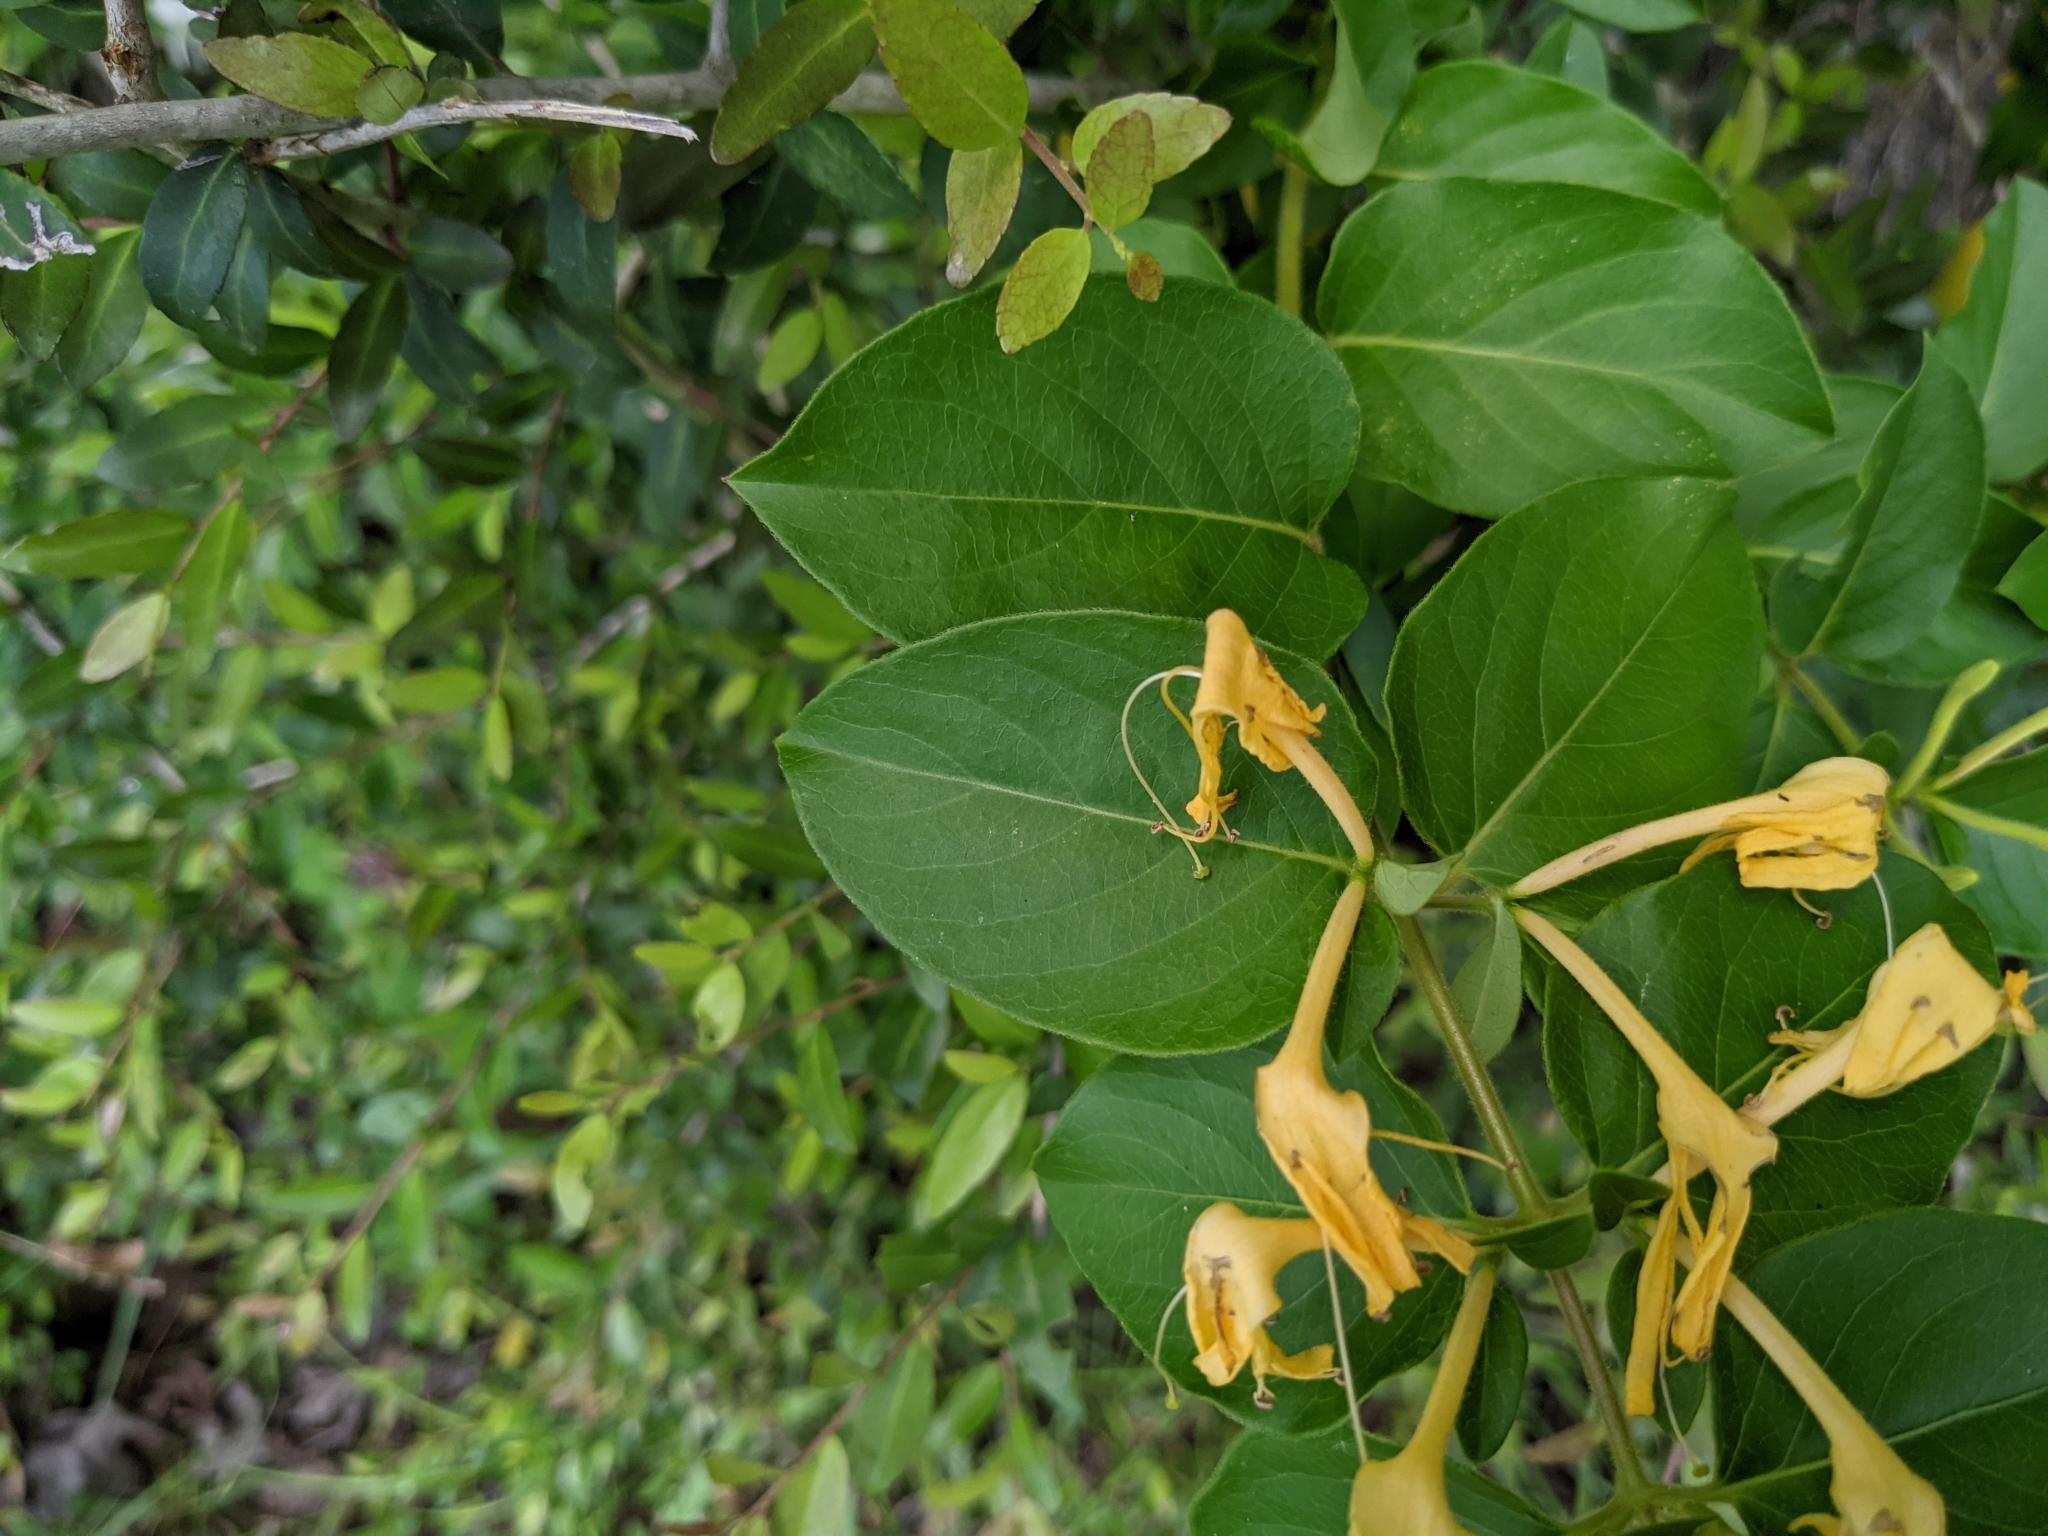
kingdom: Plantae
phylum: Tracheophyta
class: Magnoliopsida
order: Dipsacales
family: Caprifoliaceae
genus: Lonicera
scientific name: Lonicera japonica
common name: Japanese honeysuckle
